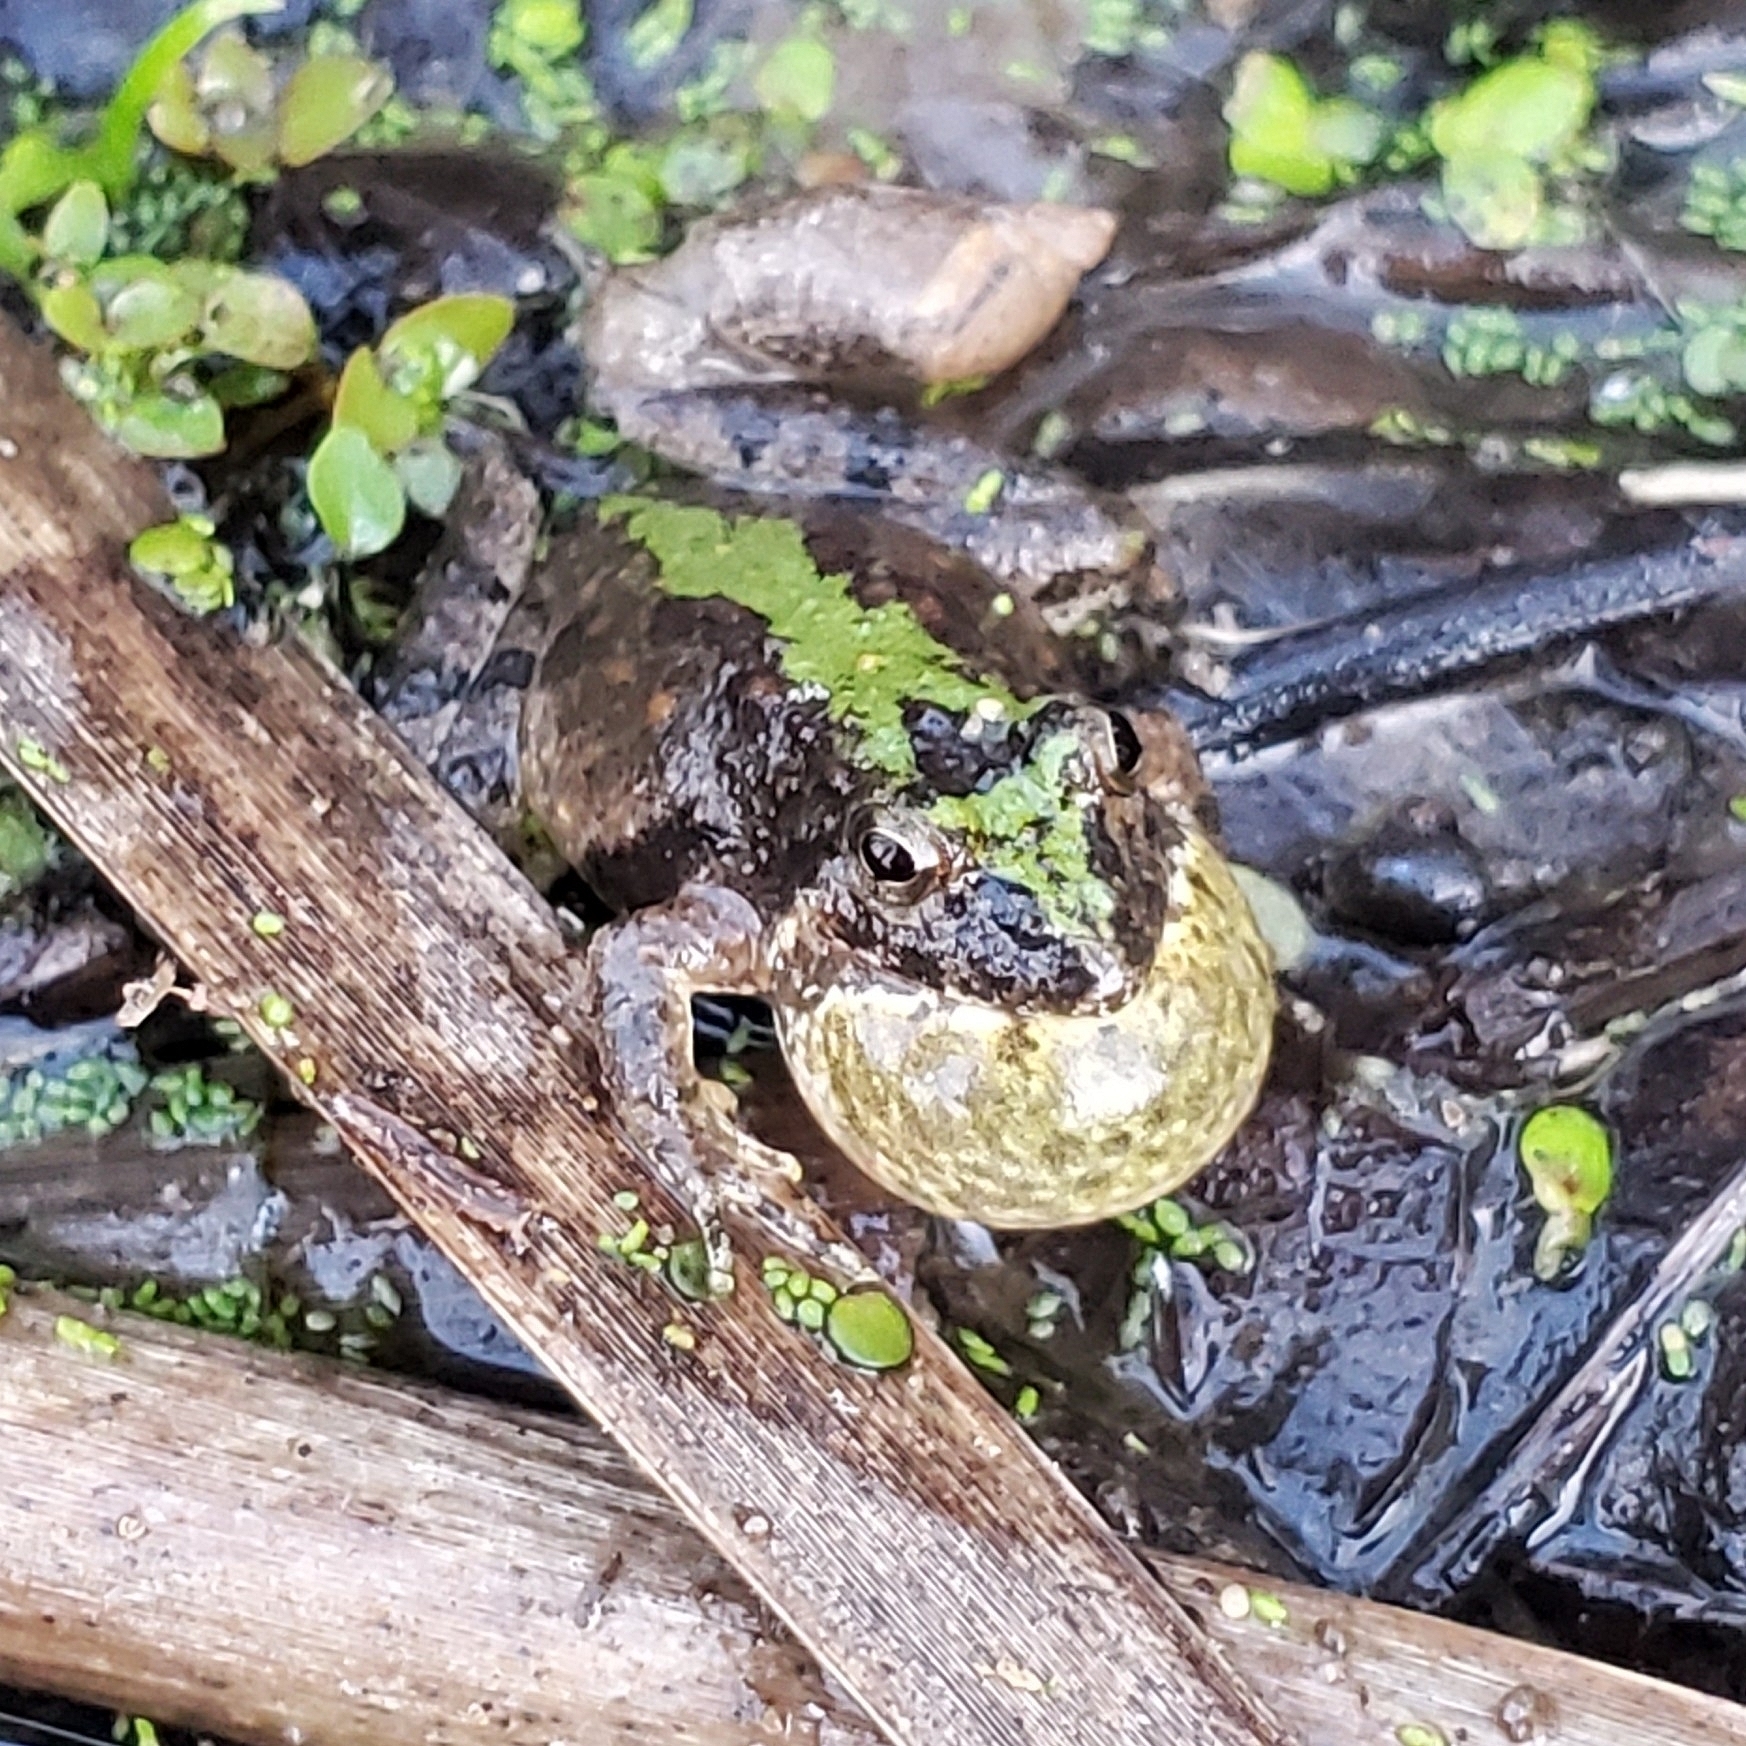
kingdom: Animalia
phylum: Chordata
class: Amphibia
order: Anura
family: Hylidae
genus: Acris
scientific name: Acris blanchardi
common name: Blanchard's cricket frog
